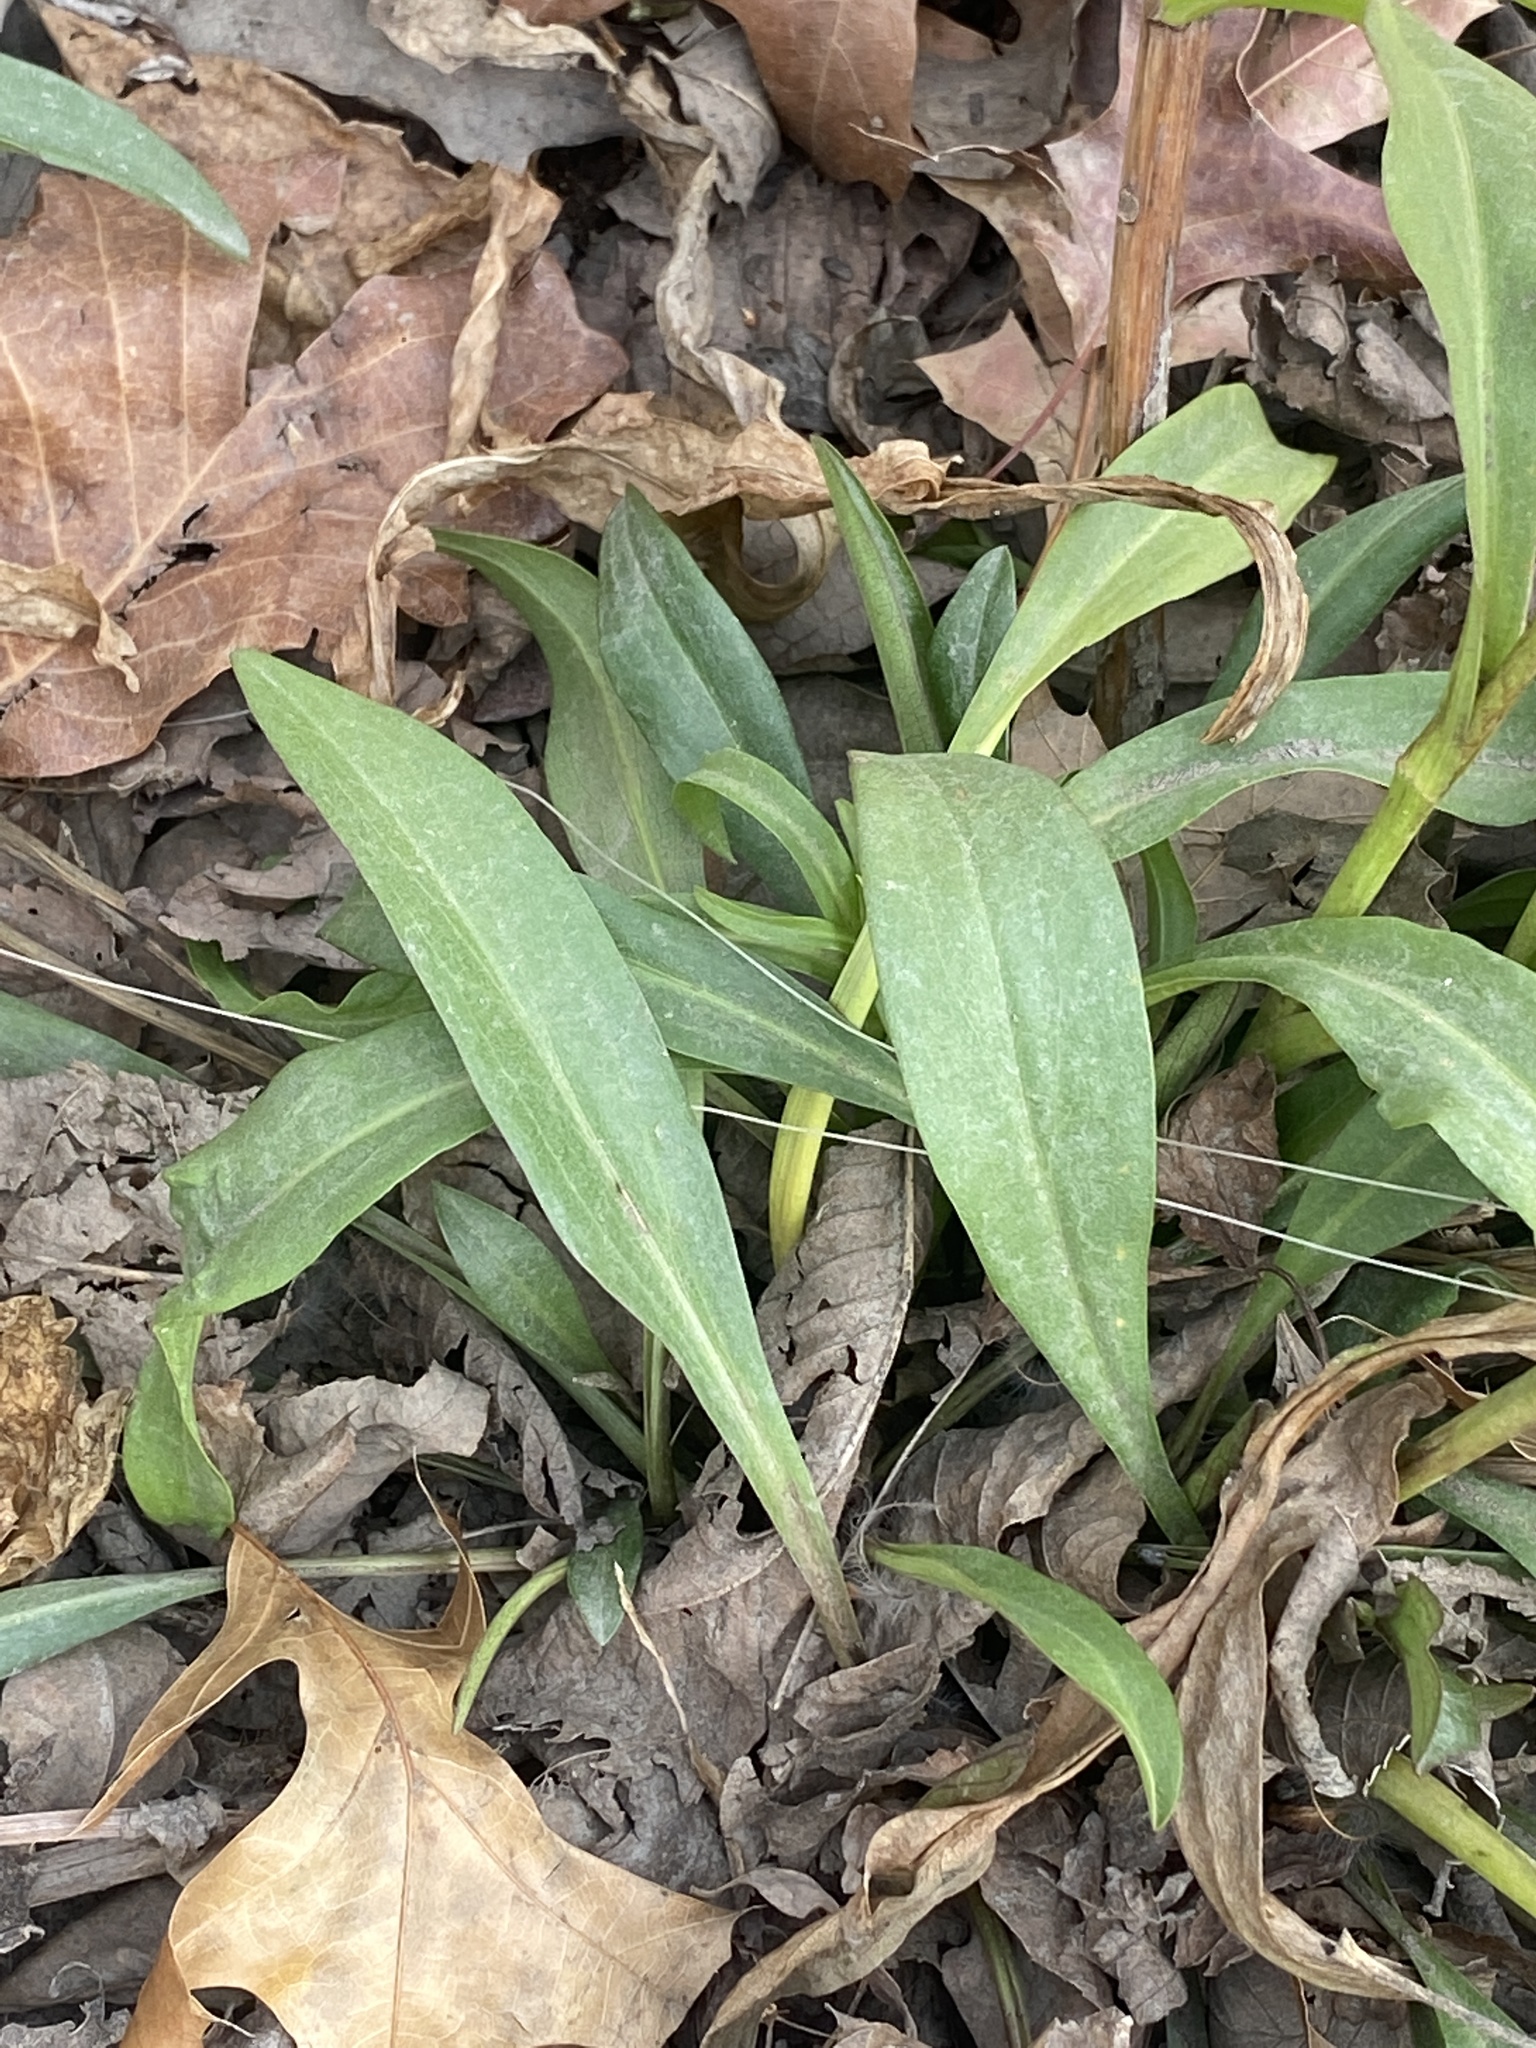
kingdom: Plantae
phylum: Tracheophyta
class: Magnoliopsida
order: Asterales
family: Asteraceae
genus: Solidago
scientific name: Solidago sempervirens
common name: Salt-marsh goldenrod
